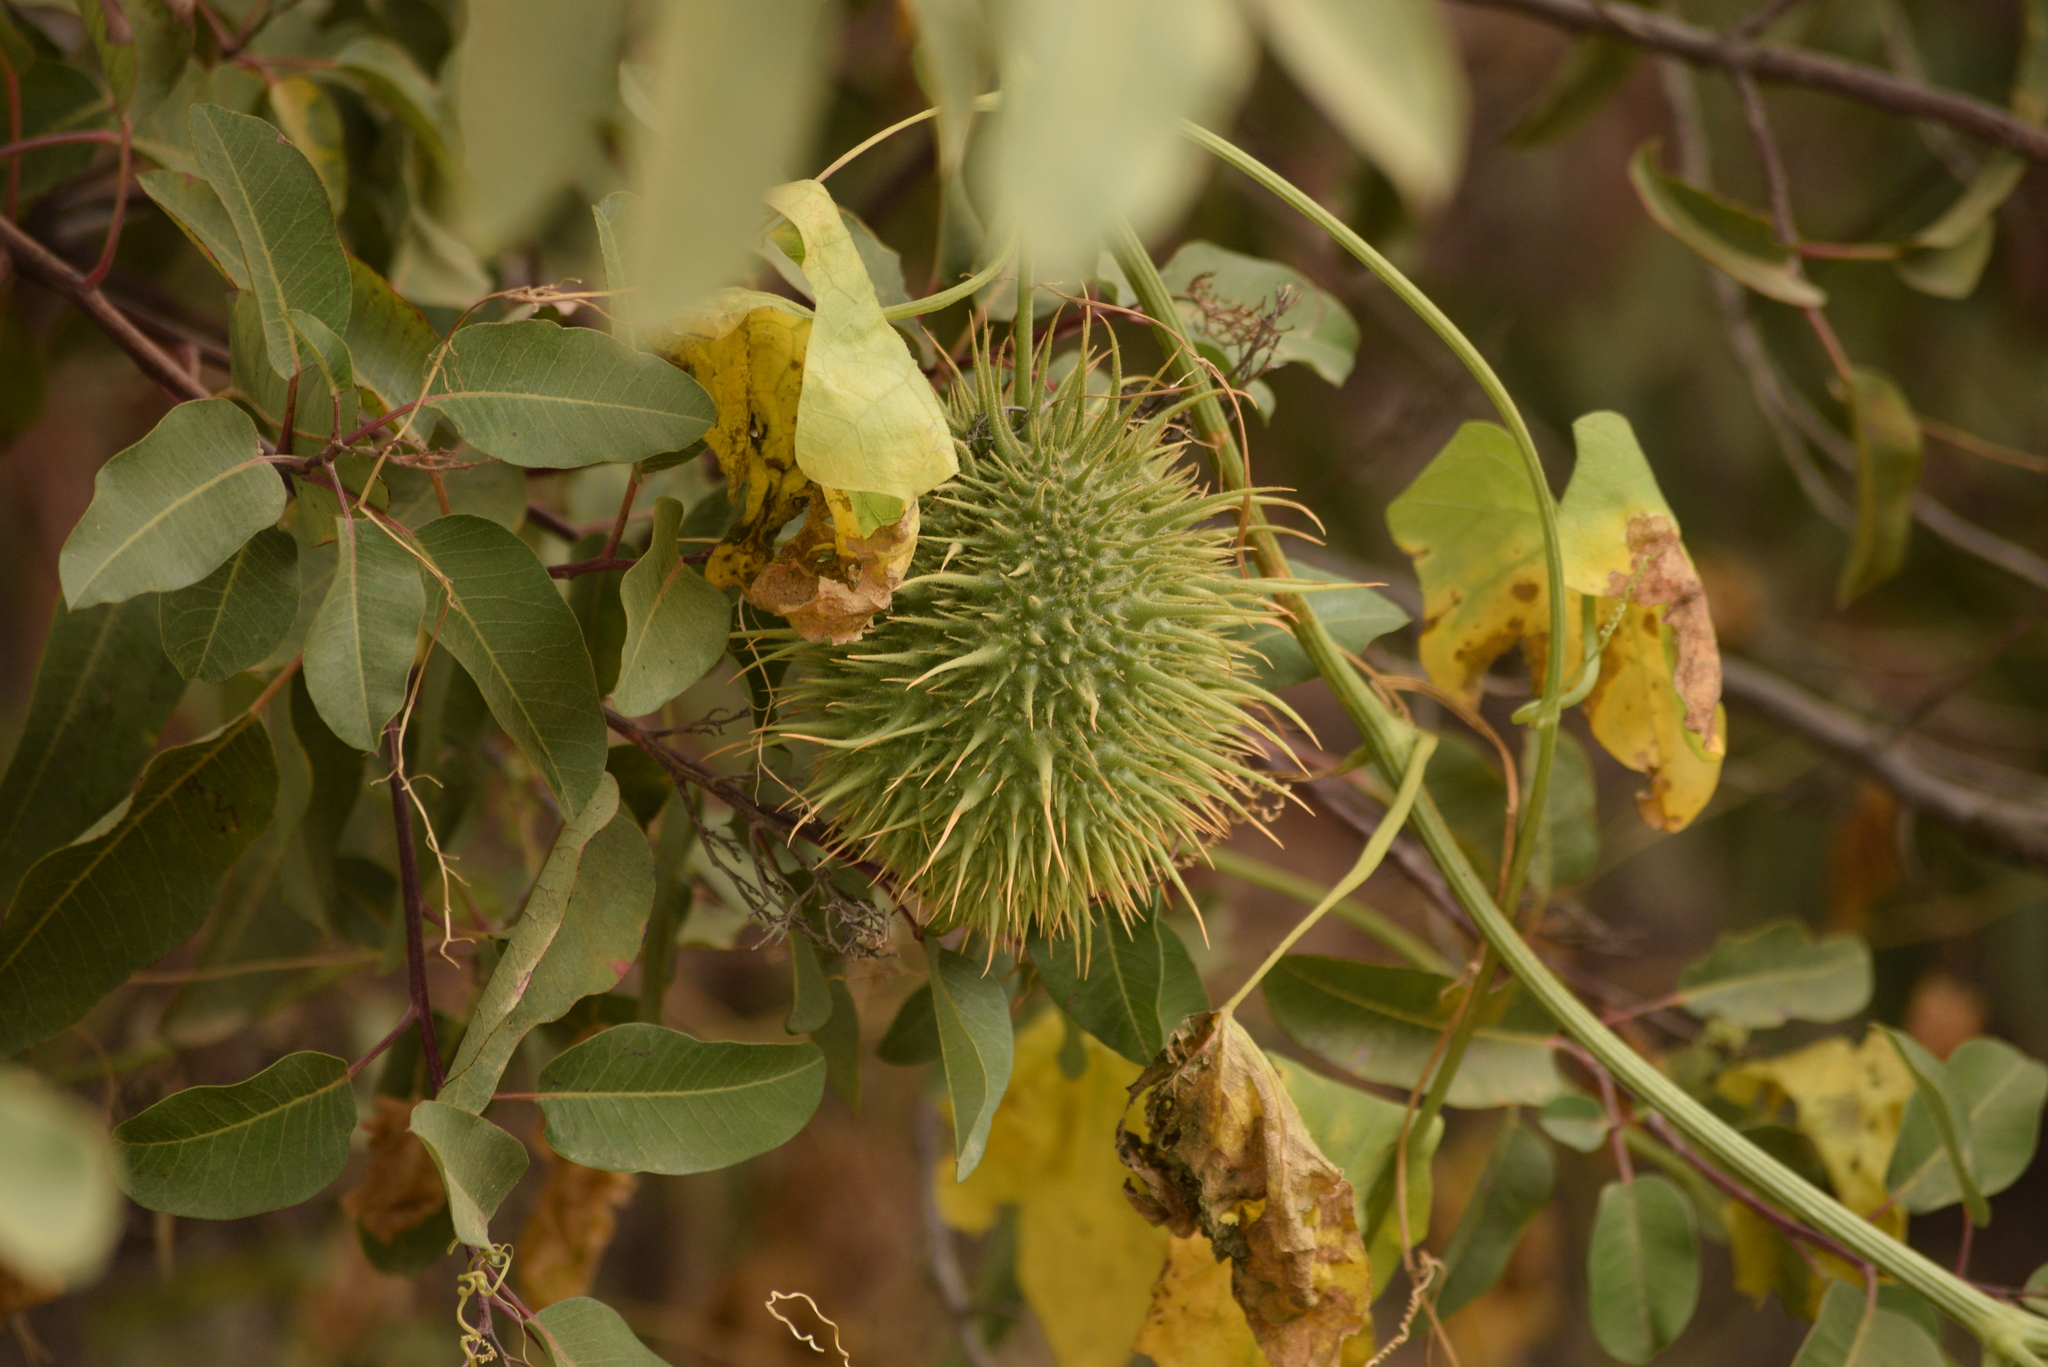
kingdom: Plantae
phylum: Tracheophyta
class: Magnoliopsida
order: Cucurbitales
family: Cucurbitaceae
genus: Marah
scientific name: Marah macrocarpa
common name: Cucamonga manroot
